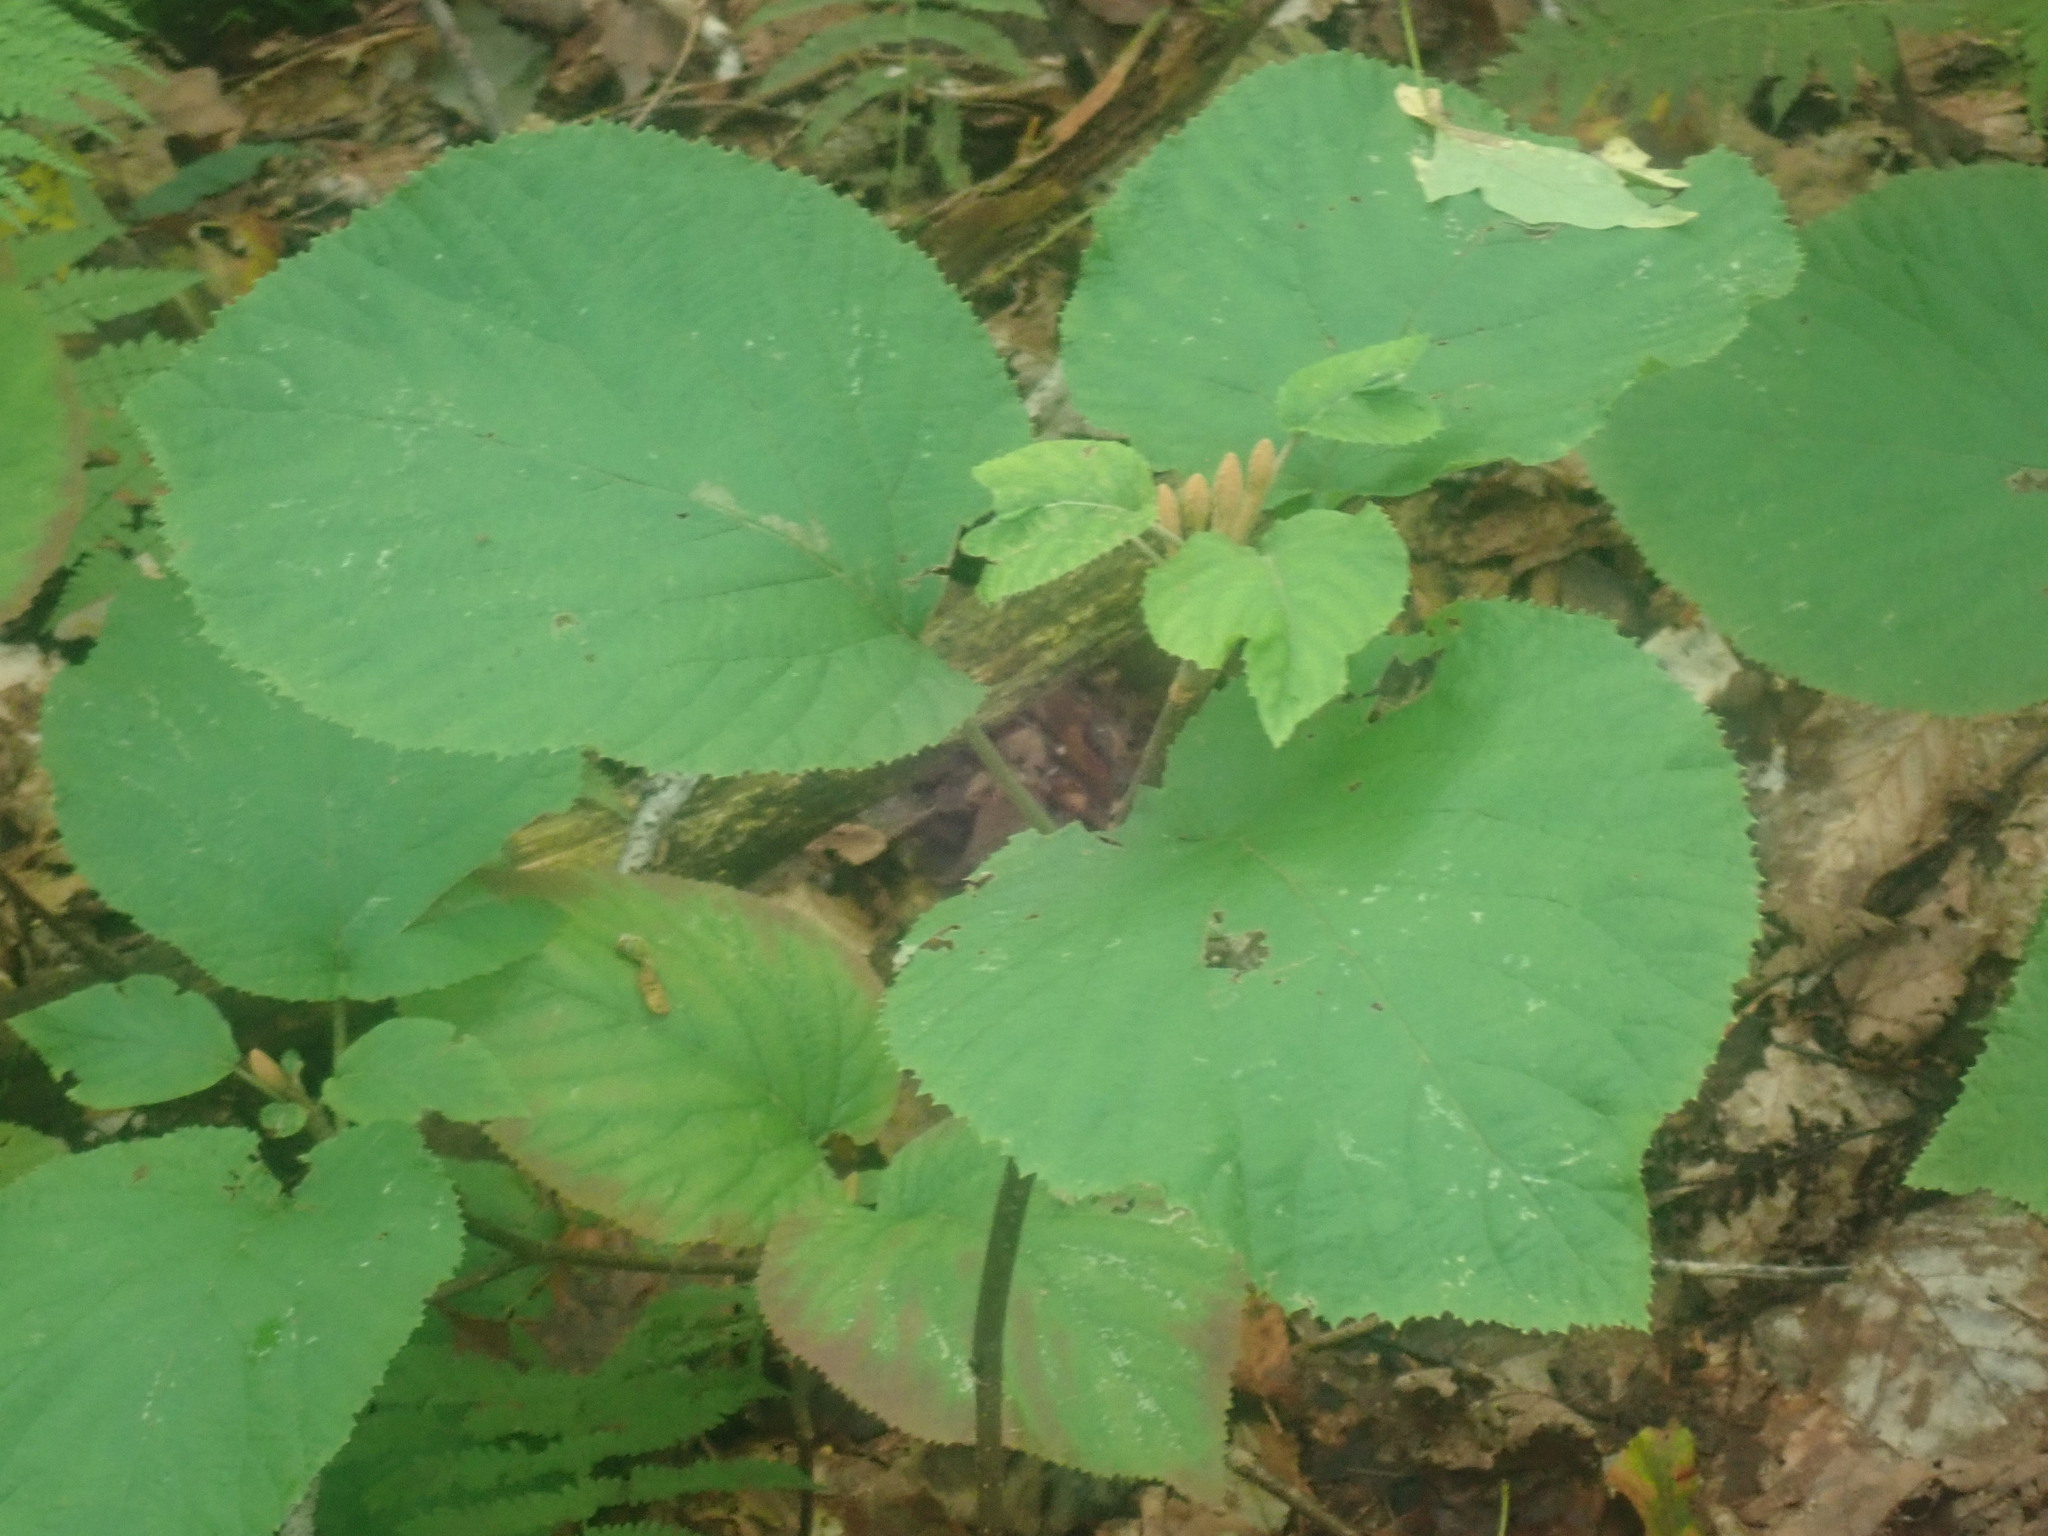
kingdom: Plantae
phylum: Tracheophyta
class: Magnoliopsida
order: Dipsacales
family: Viburnaceae
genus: Viburnum
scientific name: Viburnum lantanoides
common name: Hobblebush
